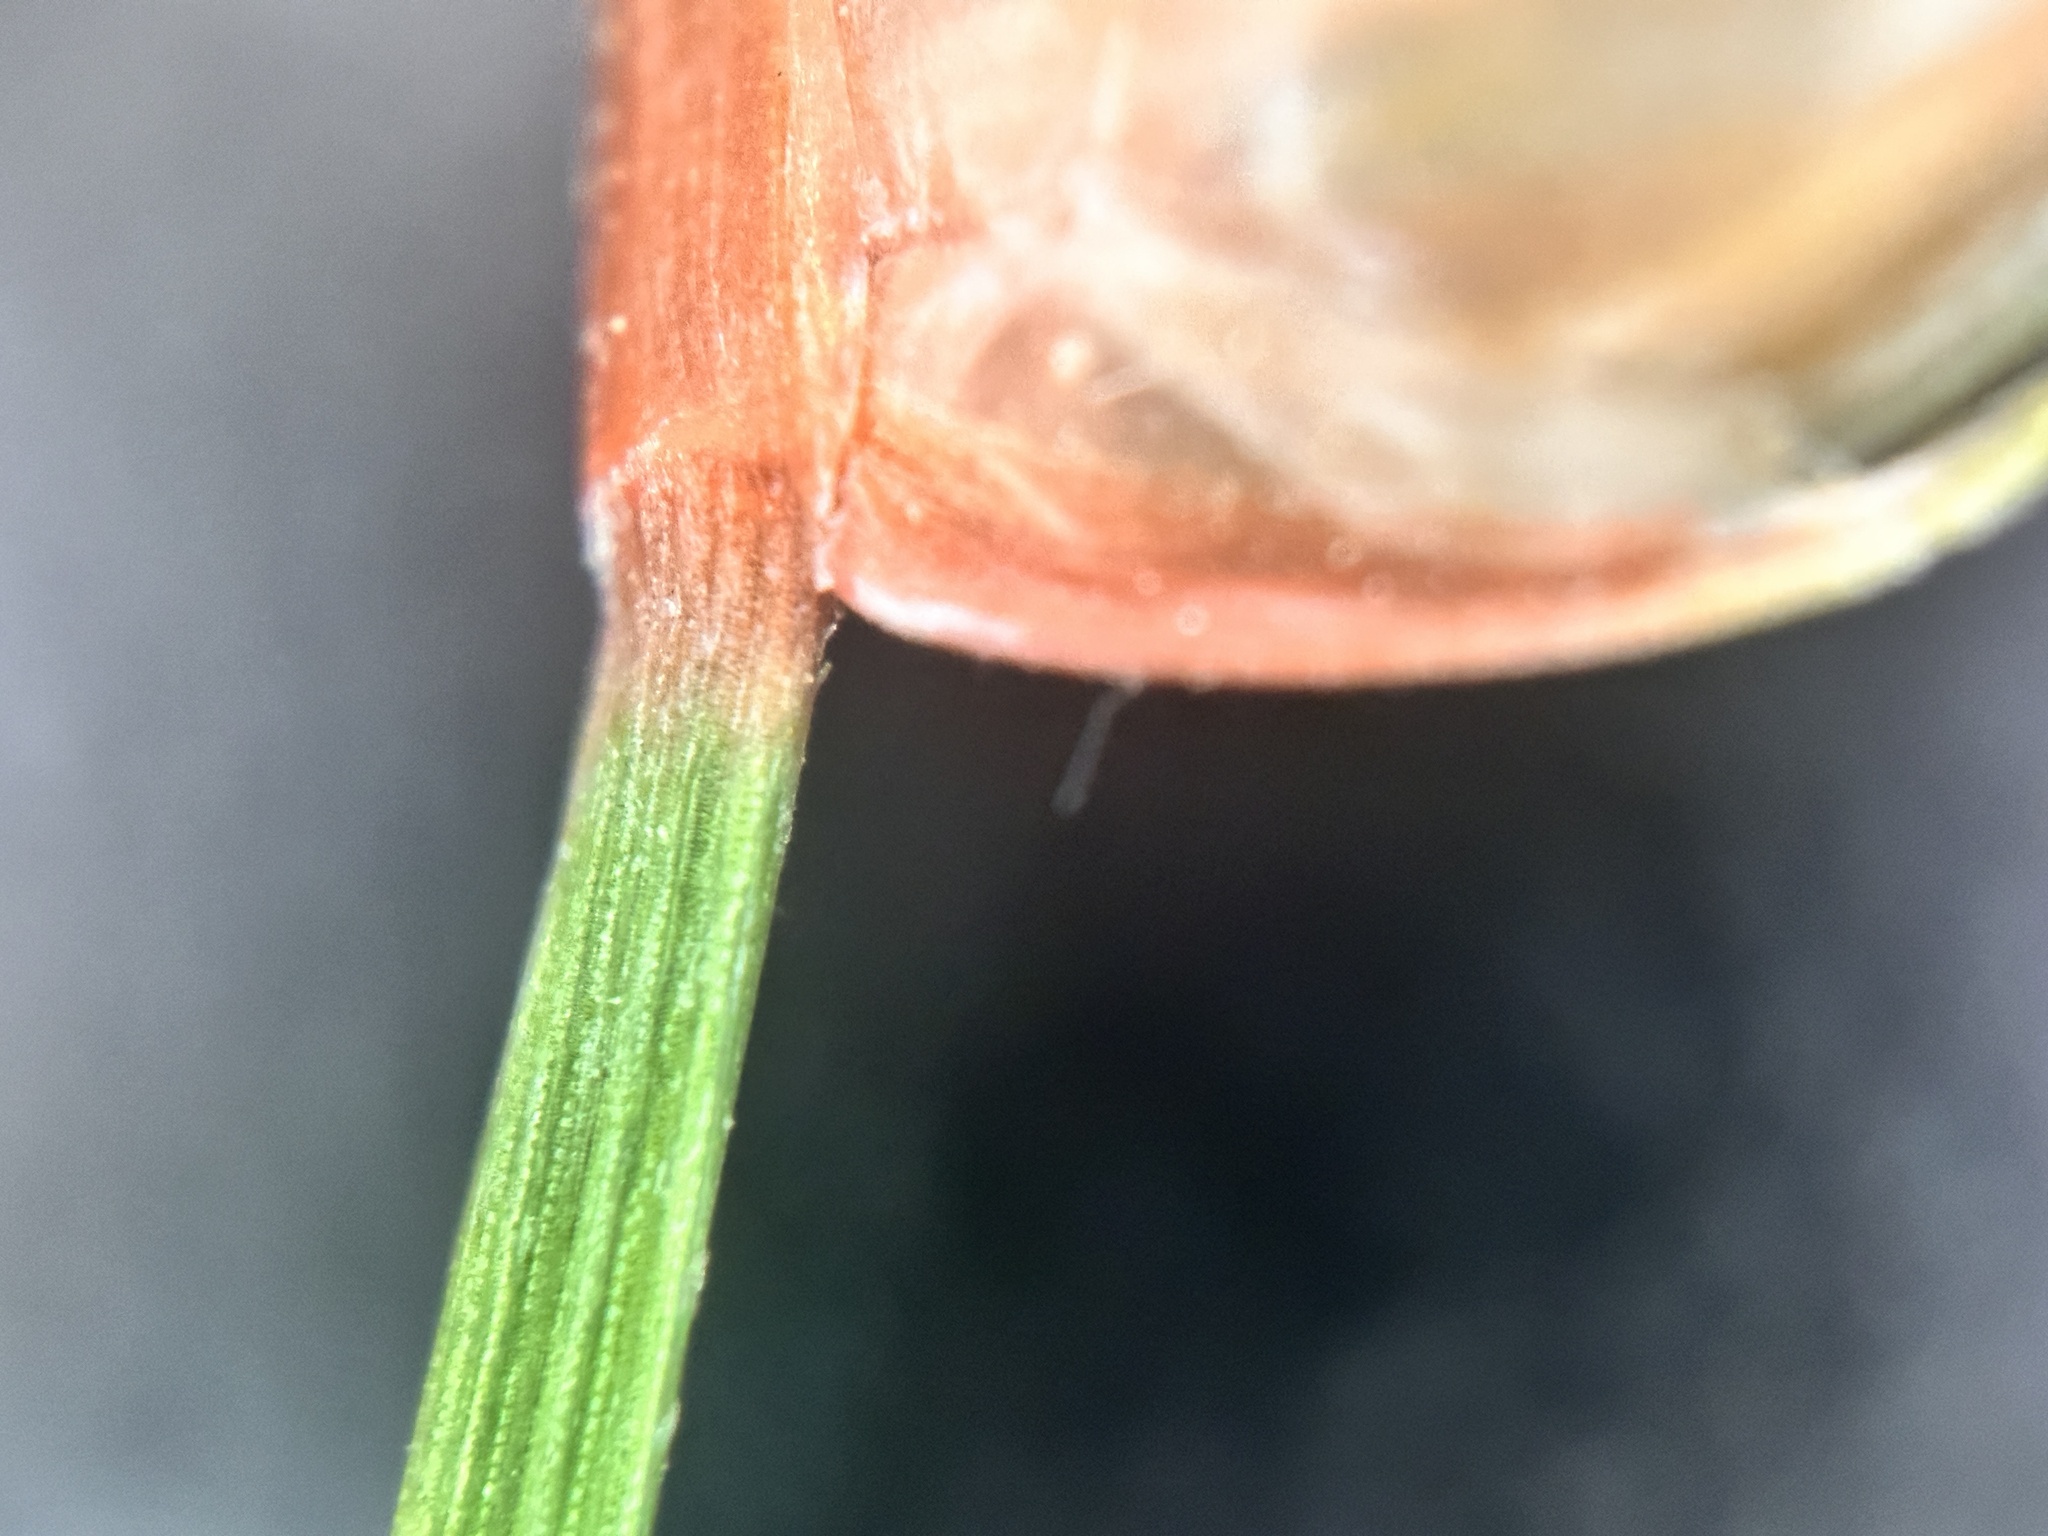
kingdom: Plantae
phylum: Tracheophyta
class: Liliopsida
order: Poales
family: Cyperaceae
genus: Abildgaardia
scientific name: Abildgaardia ovata
